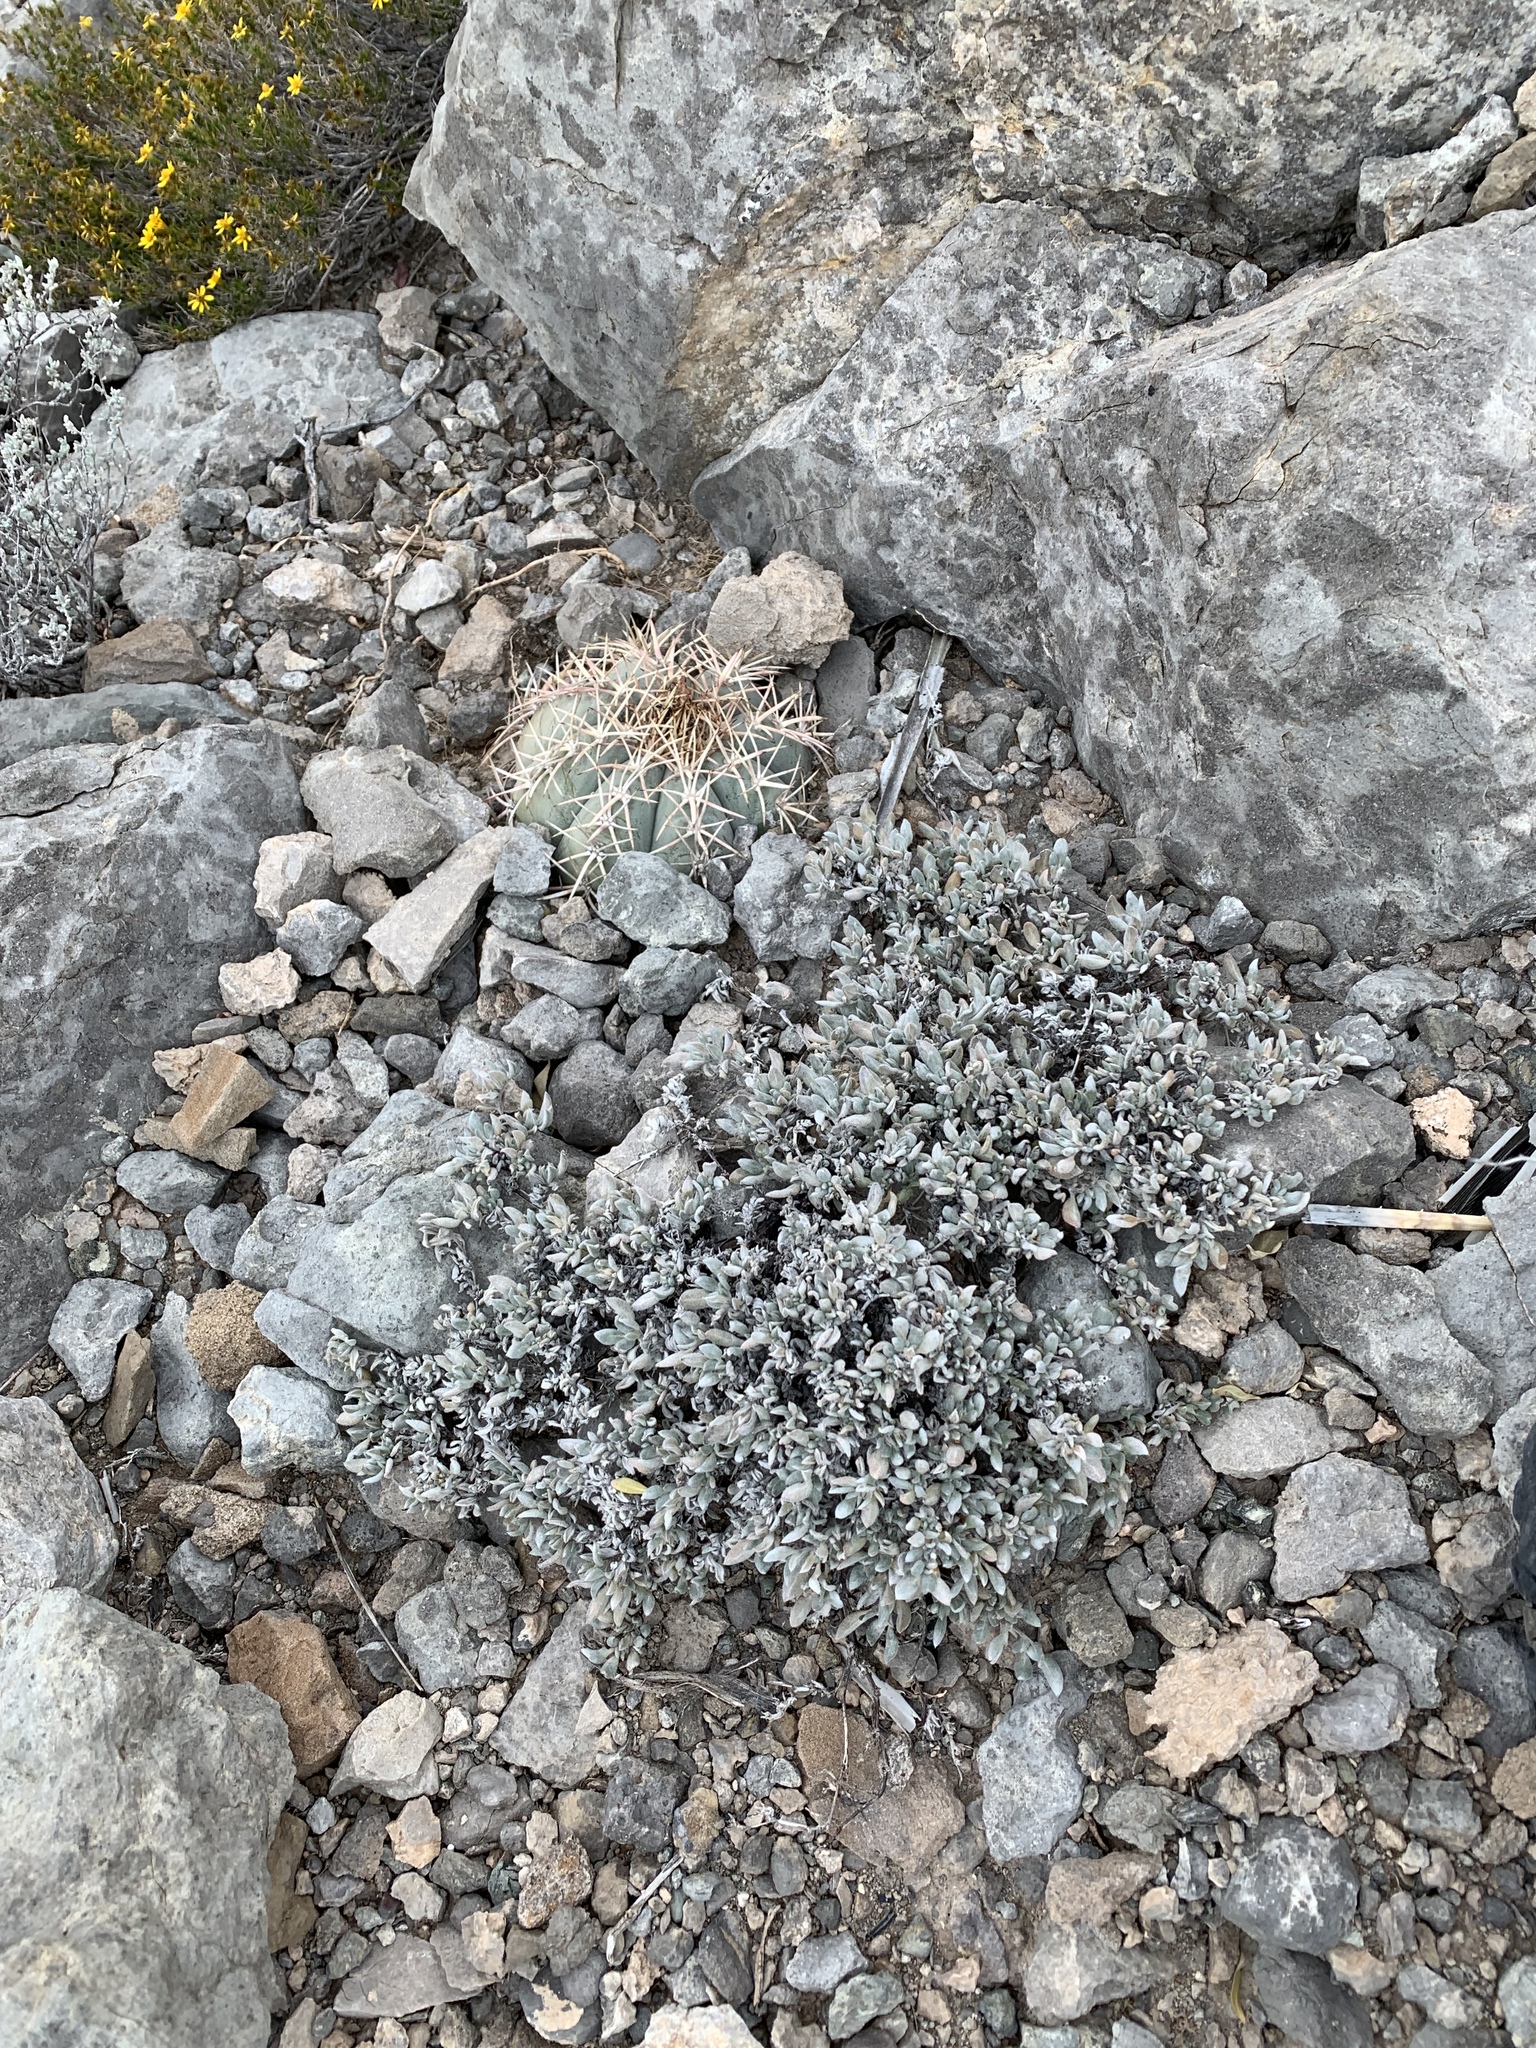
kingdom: Plantae
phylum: Tracheophyta
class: Magnoliopsida
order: Boraginales
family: Ehretiaceae
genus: Tiquilia
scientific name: Tiquilia canescens
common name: Hairy tiquilia
